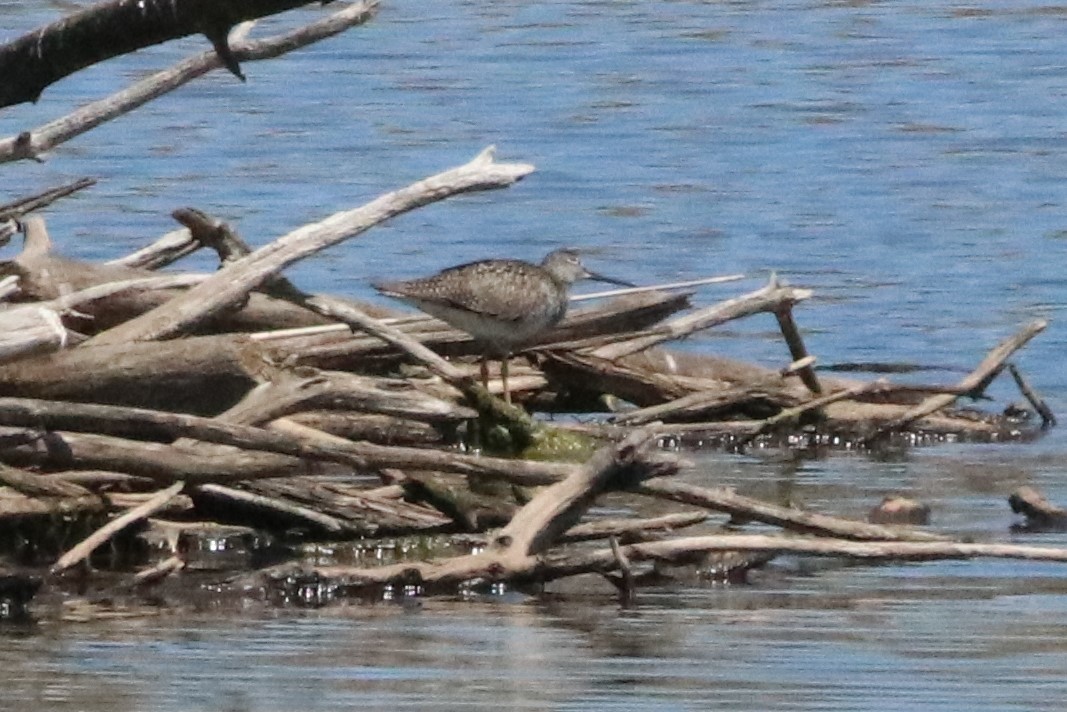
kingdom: Animalia
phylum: Chordata
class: Aves
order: Charadriiformes
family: Scolopacidae
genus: Tringa
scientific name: Tringa melanoleuca
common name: Greater yellowlegs
